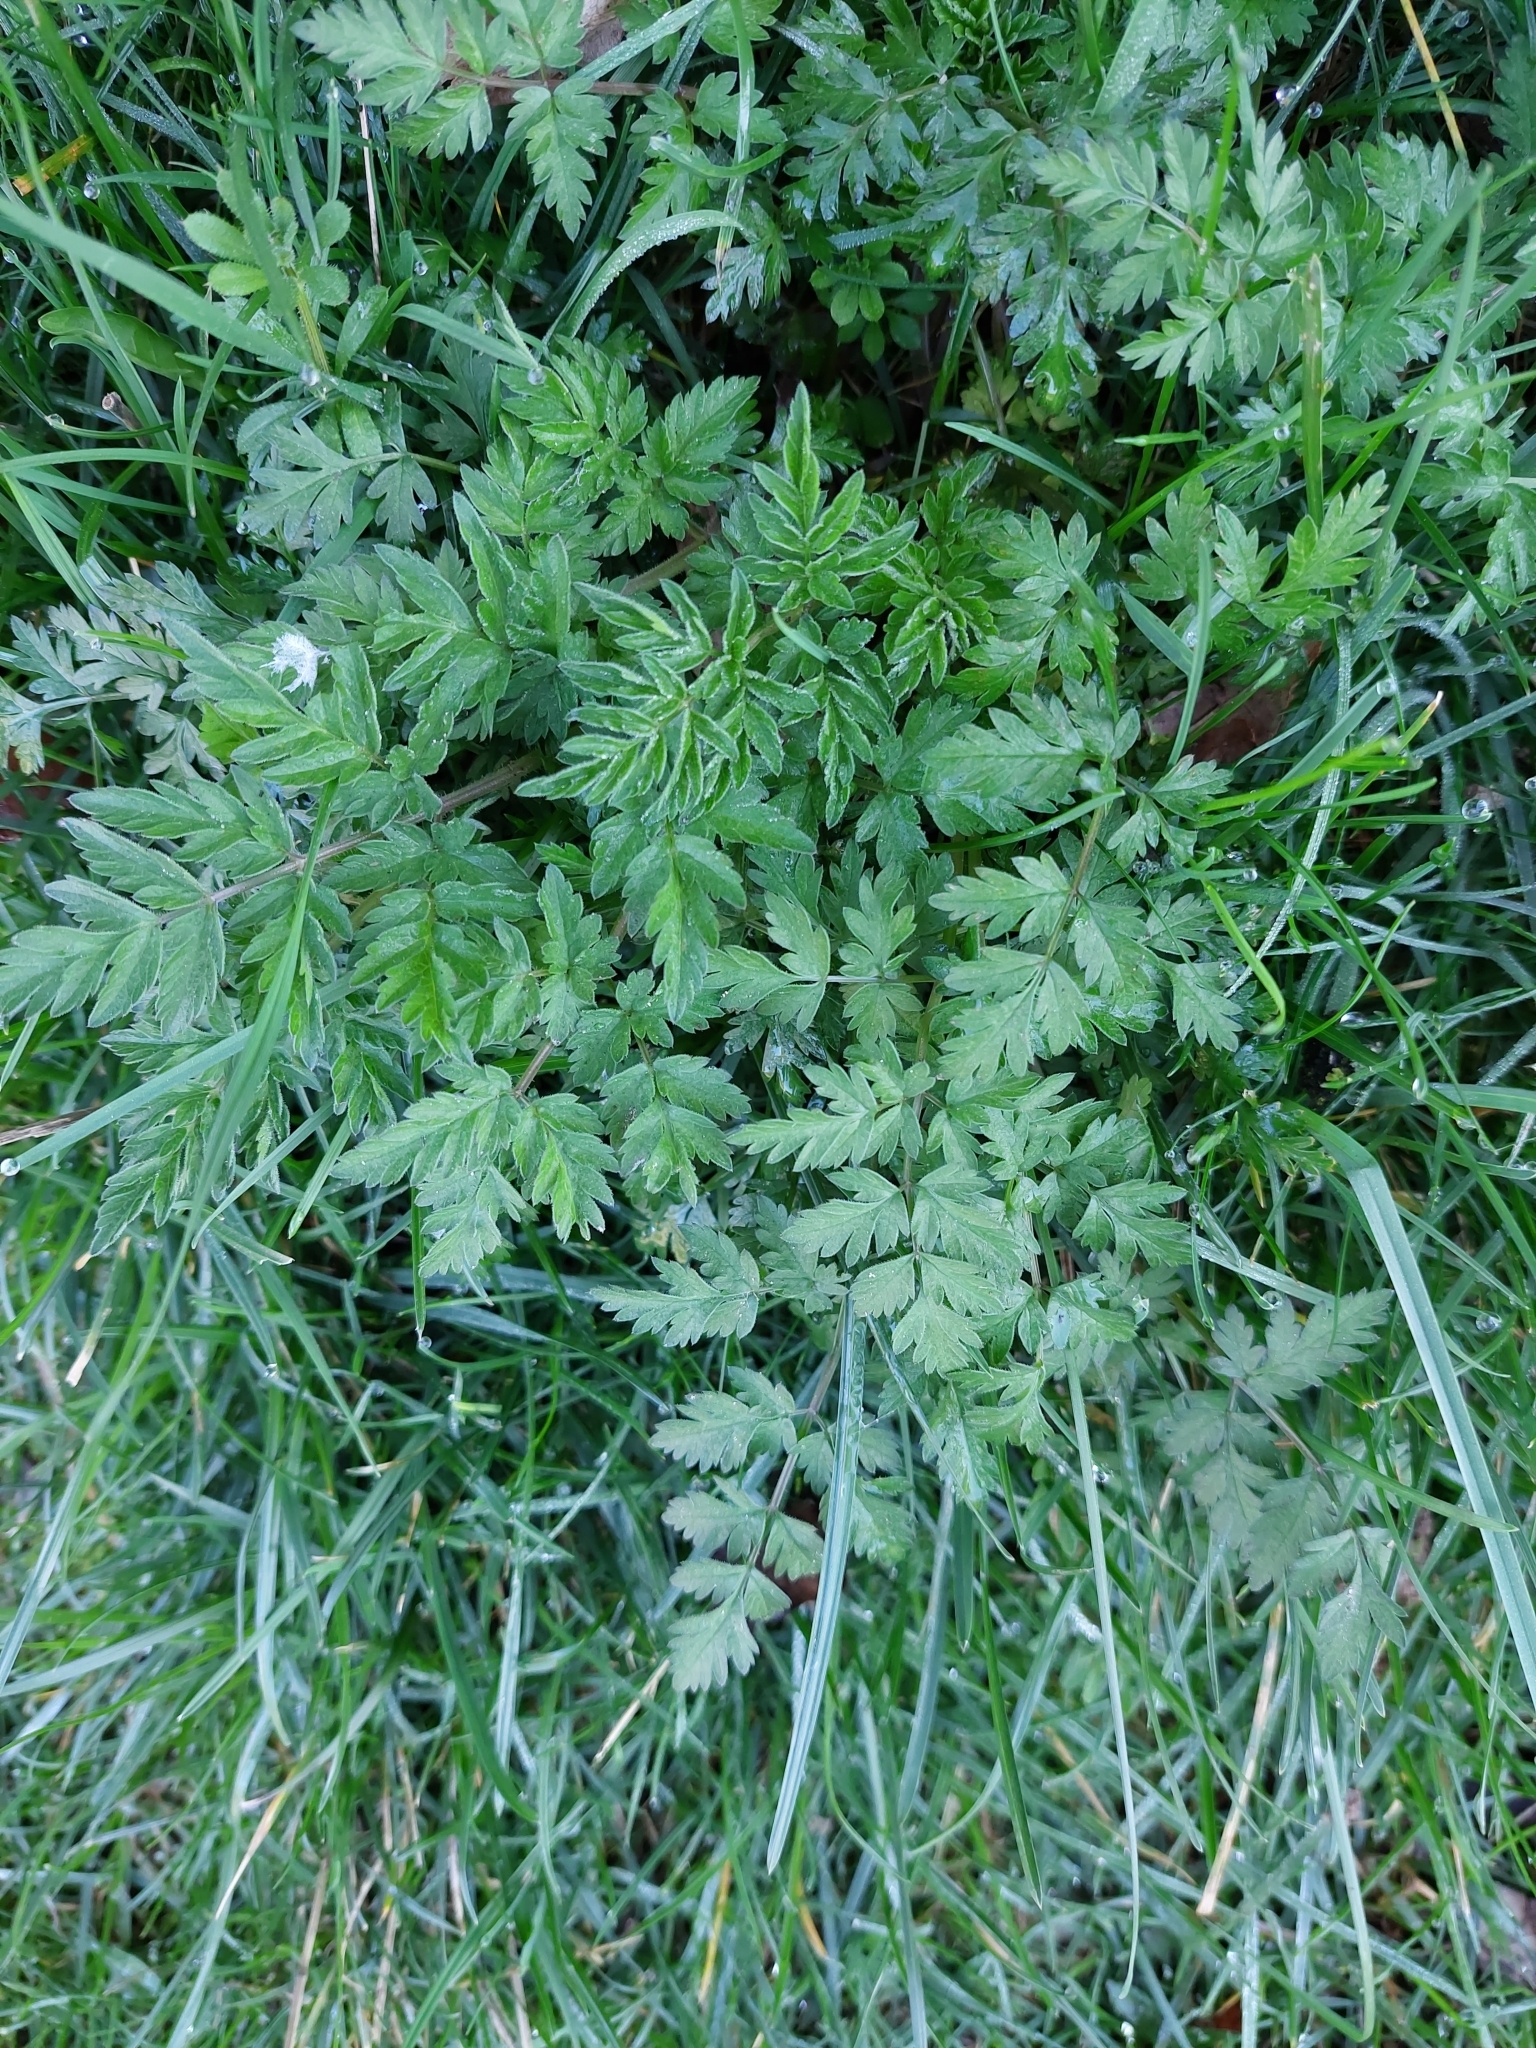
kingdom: Plantae
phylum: Tracheophyta
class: Magnoliopsida
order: Apiales
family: Apiaceae
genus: Anthriscus
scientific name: Anthriscus sylvestris
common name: Cow parsley
